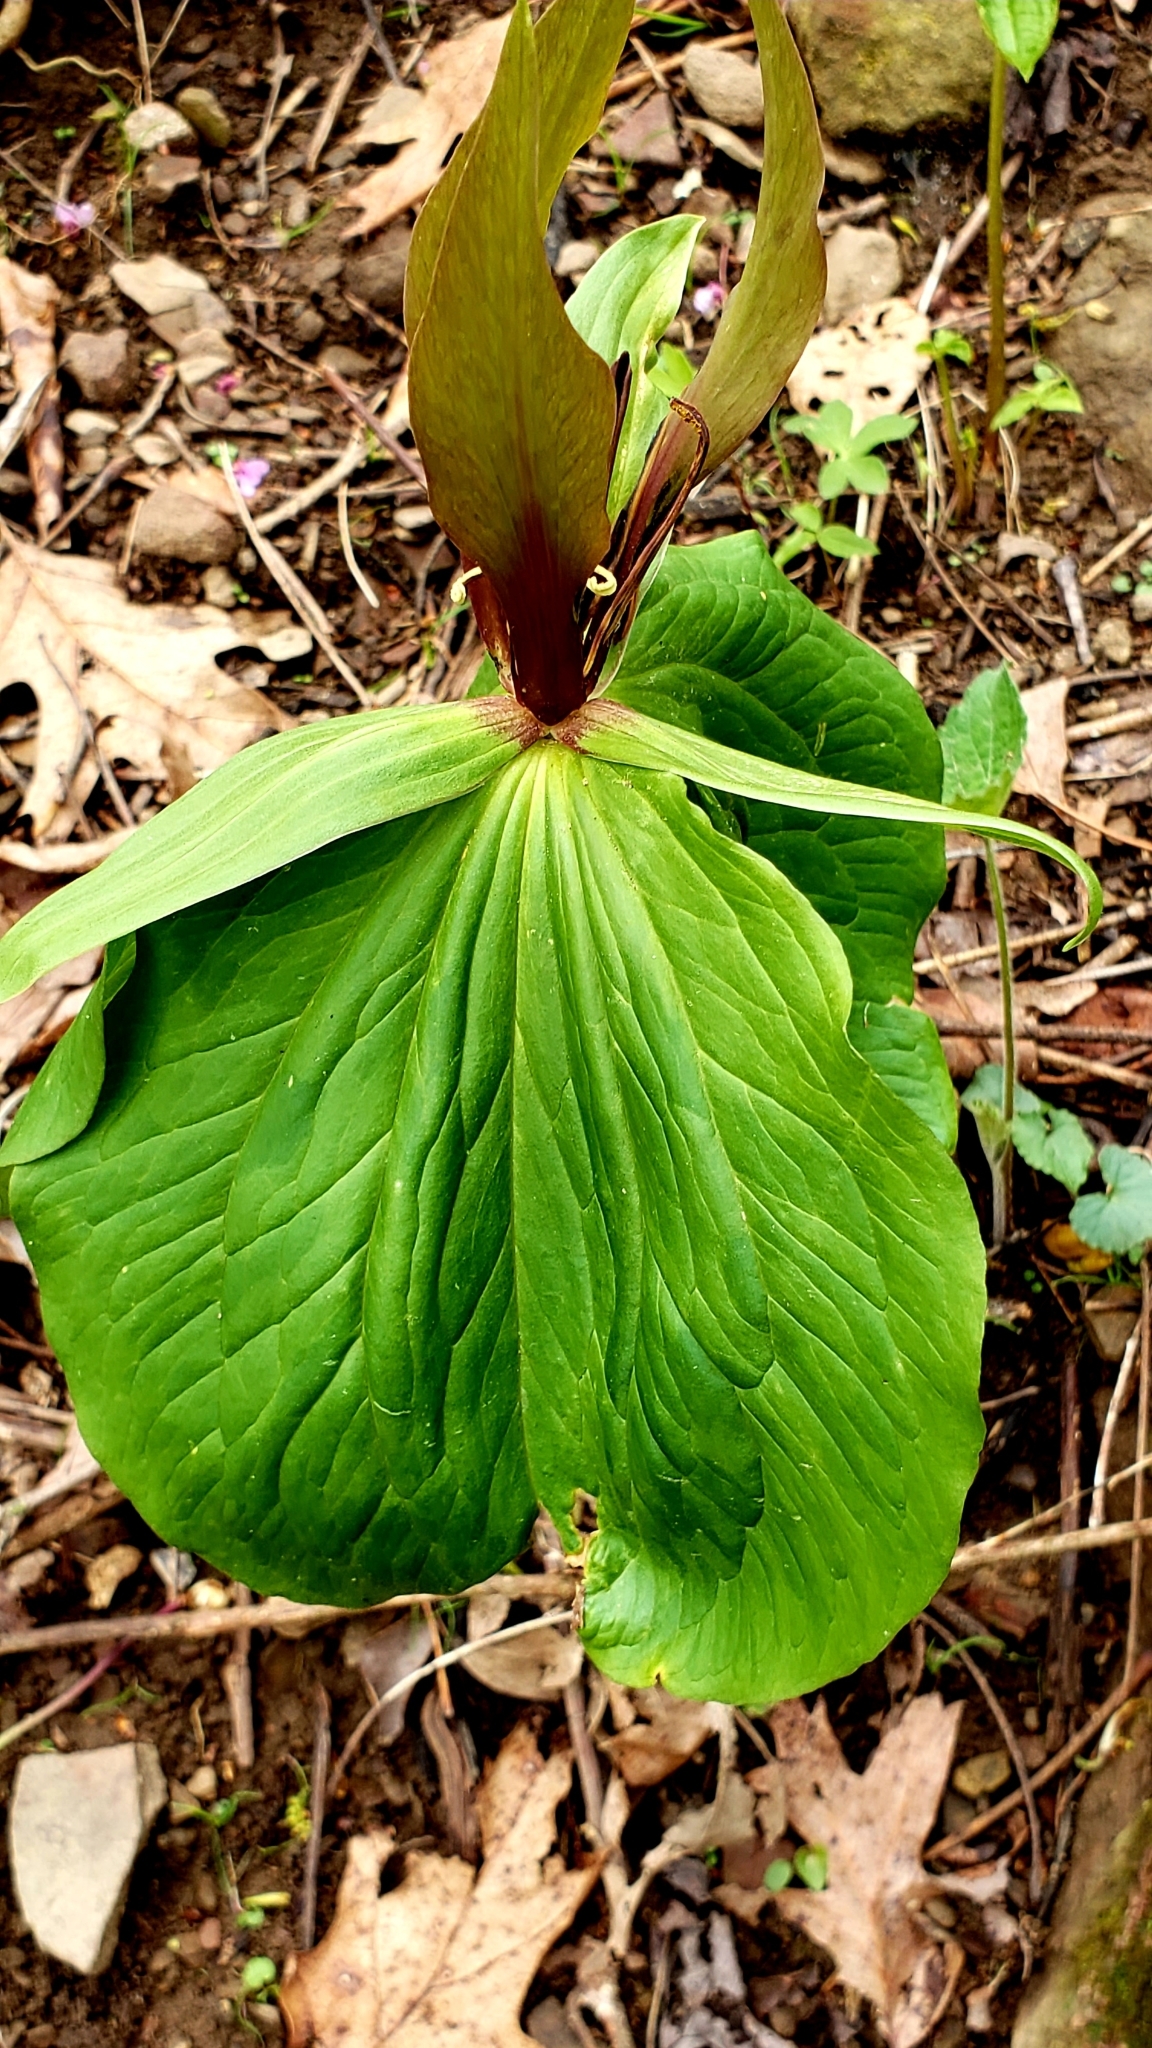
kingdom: Plantae
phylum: Tracheophyta
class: Liliopsida
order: Liliales
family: Melanthiaceae
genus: Trillium
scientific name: Trillium viridescens
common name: Ozark green trillium
